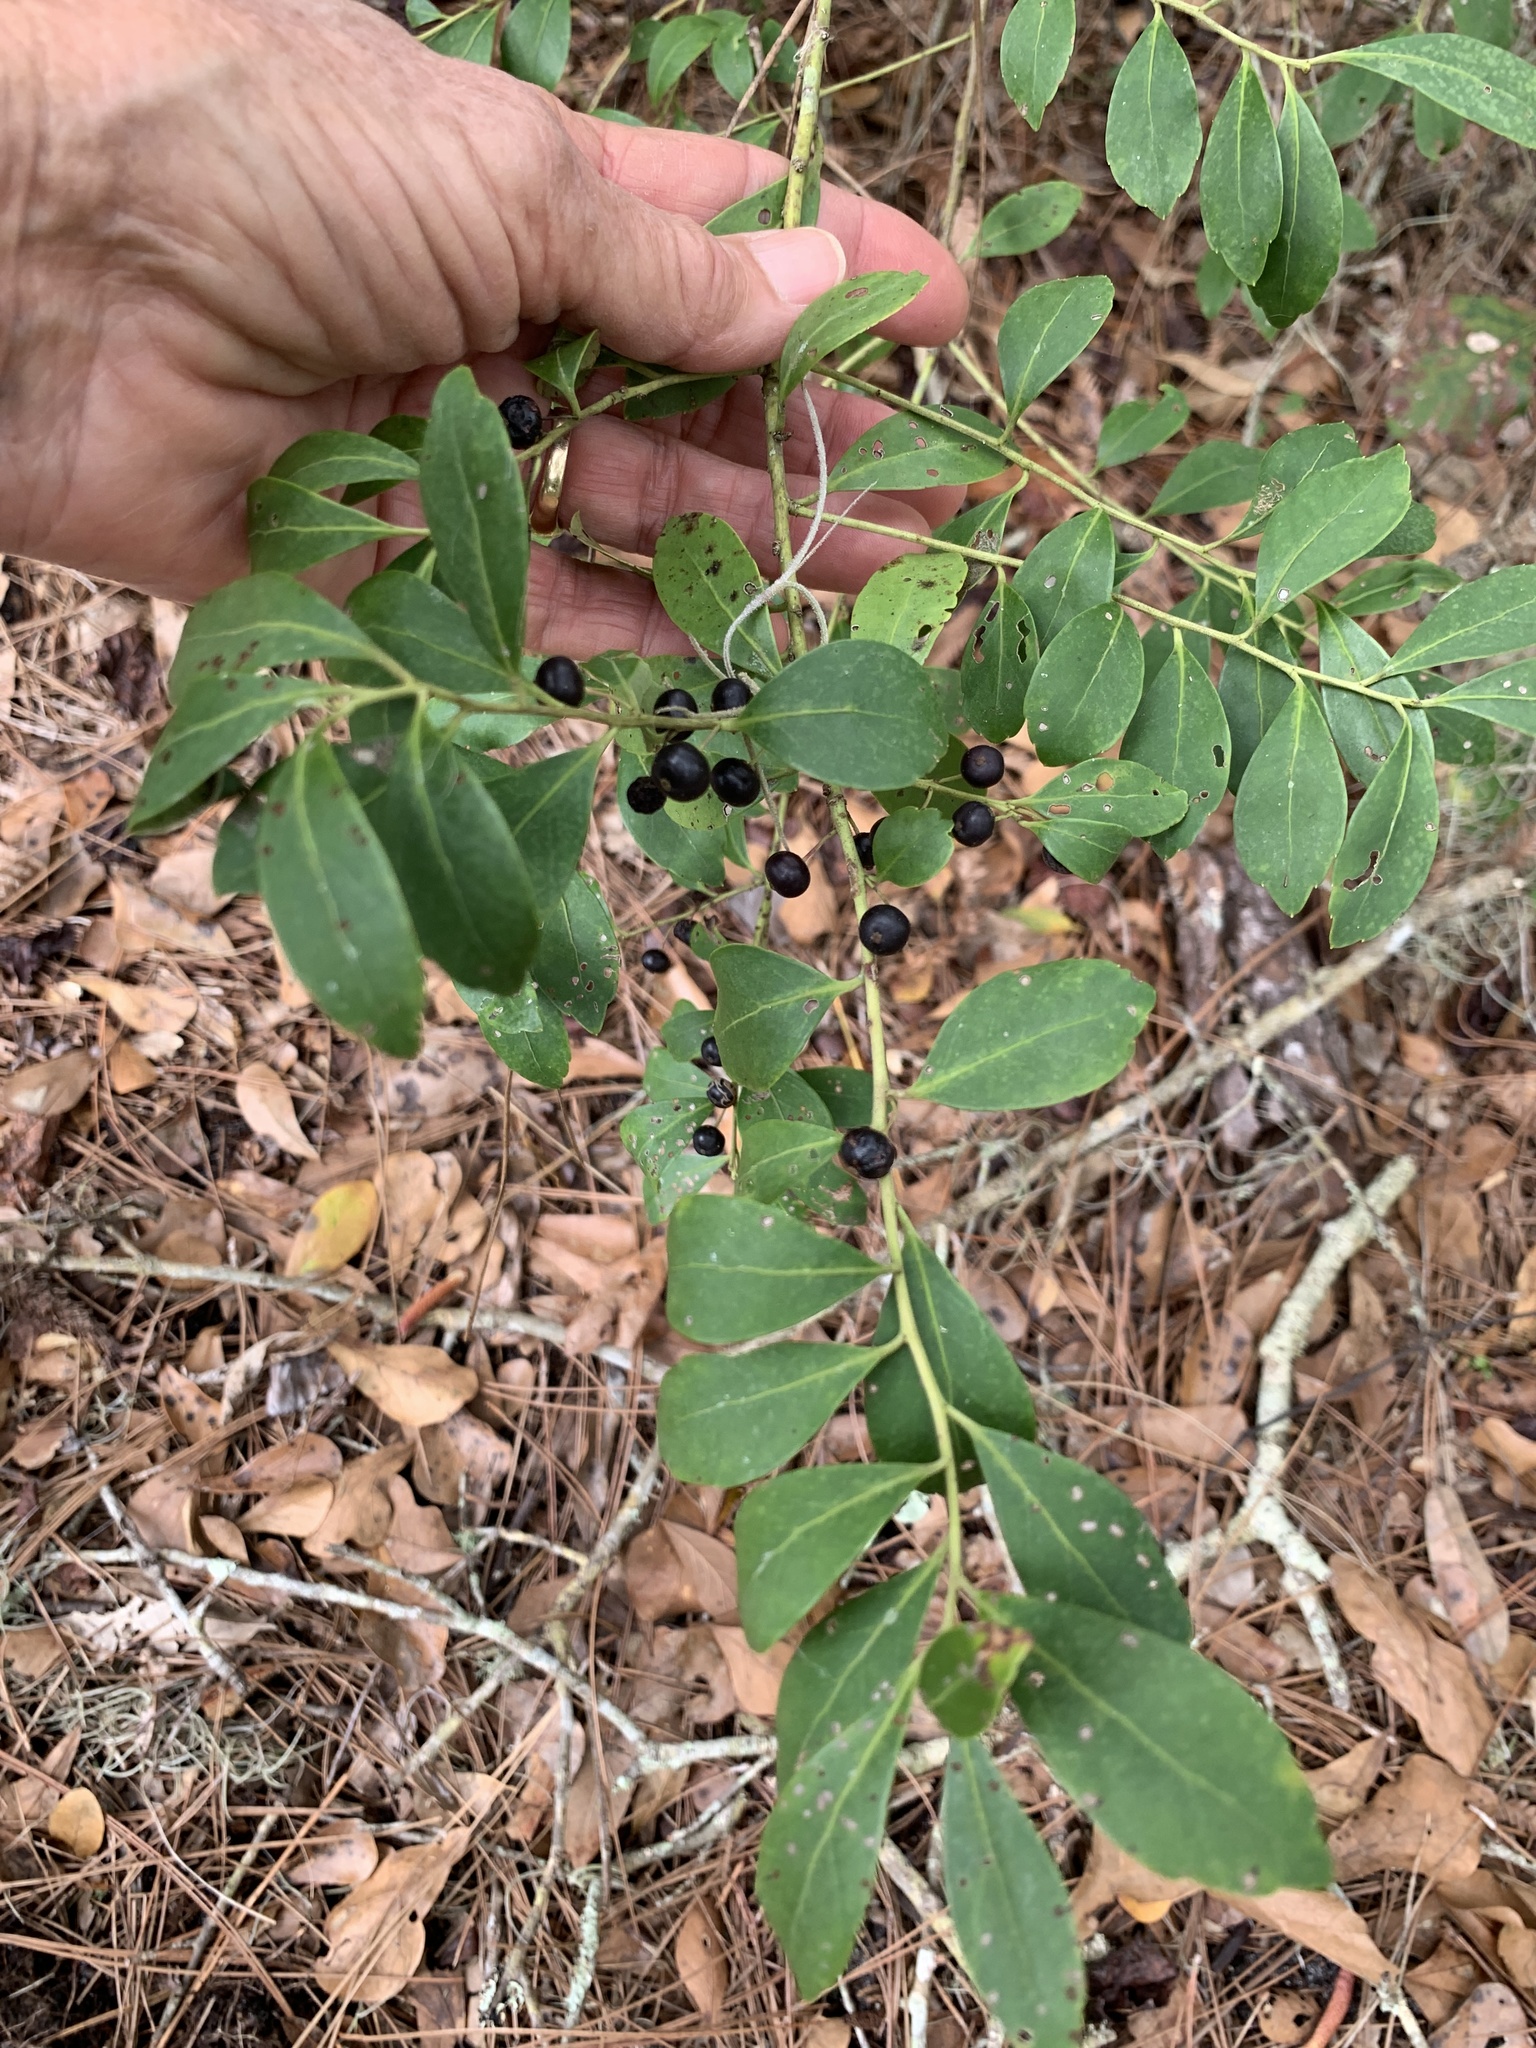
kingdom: Plantae
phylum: Tracheophyta
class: Magnoliopsida
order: Aquifoliales
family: Aquifoliaceae
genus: Ilex
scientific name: Ilex glabra
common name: Bitter gallberry
